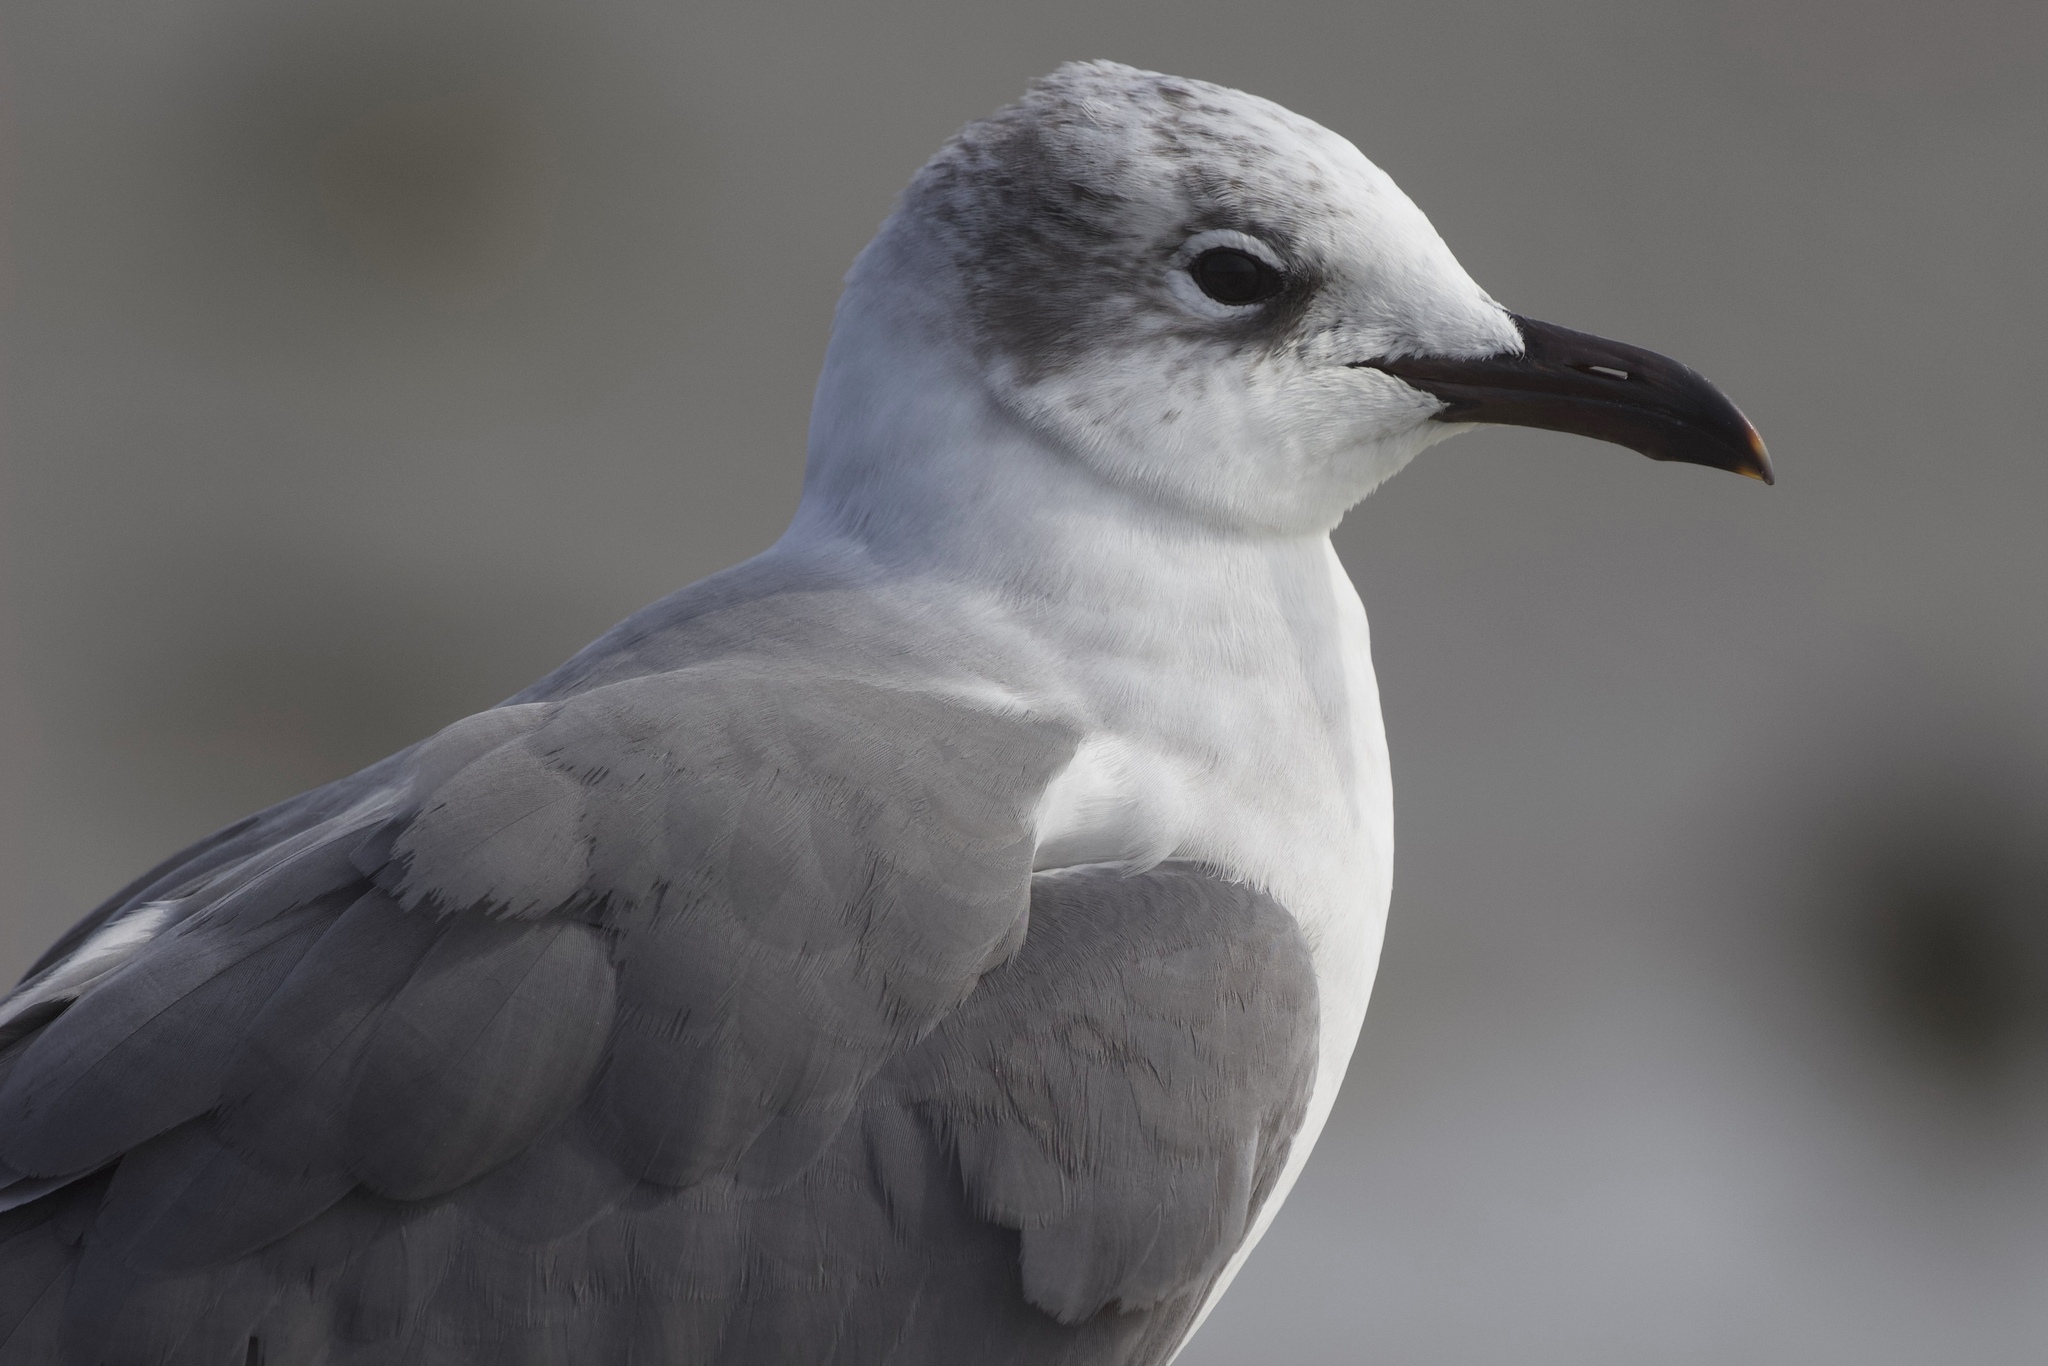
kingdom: Animalia
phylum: Chordata
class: Aves
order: Charadriiformes
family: Laridae
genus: Leucophaeus
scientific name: Leucophaeus atricilla
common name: Laughing gull
